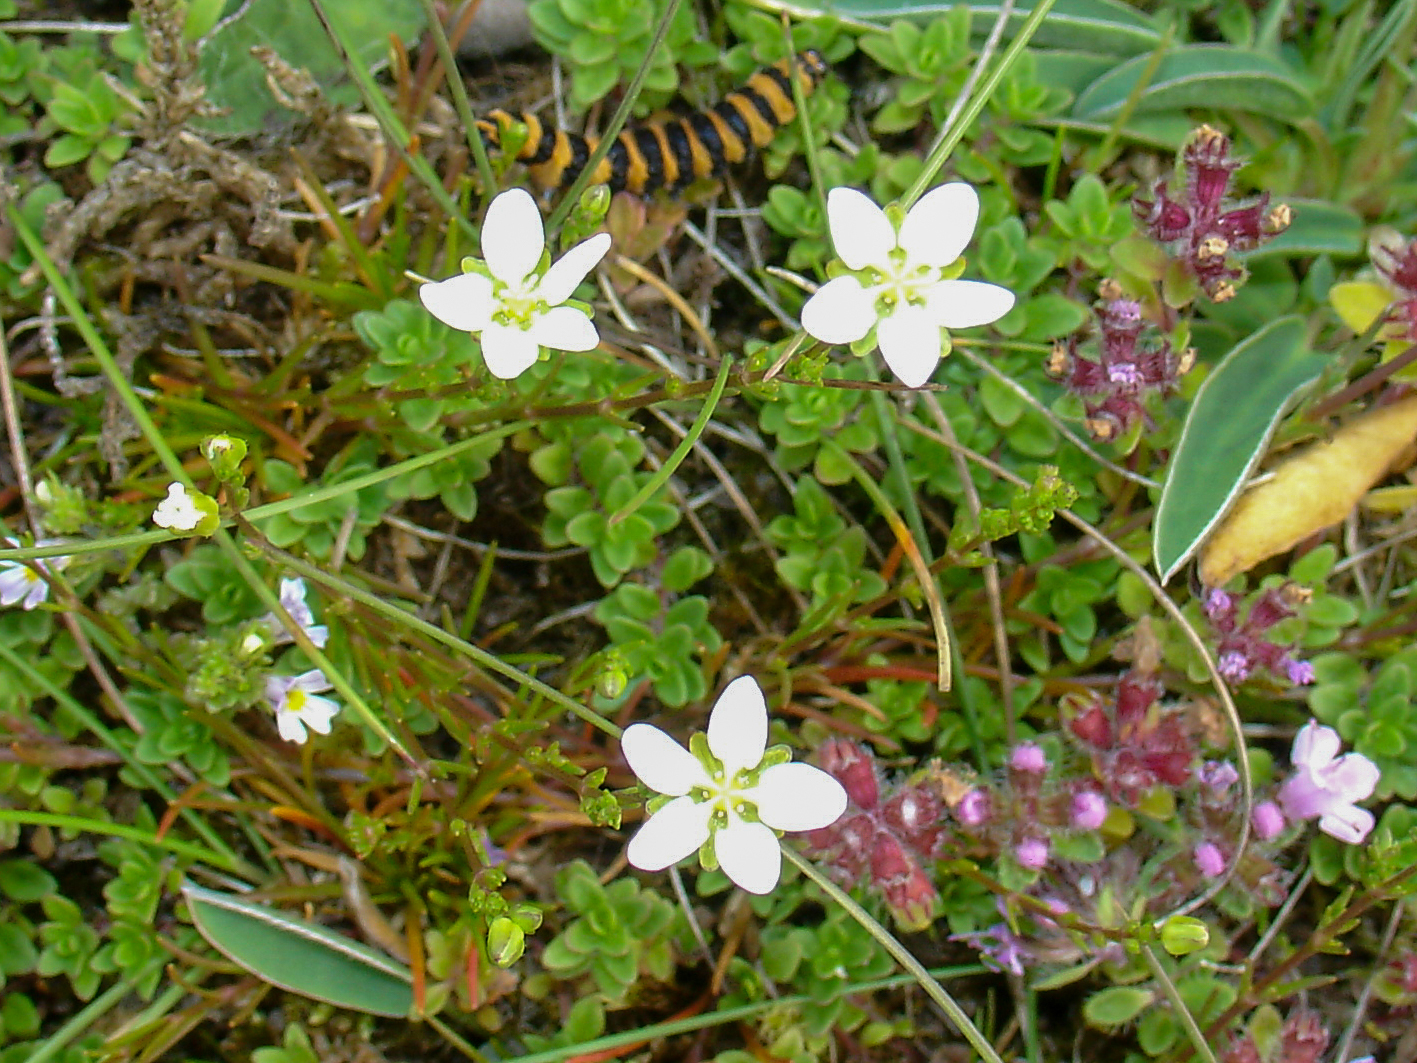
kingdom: Plantae
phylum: Tracheophyta
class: Magnoliopsida
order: Caryophyllales
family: Caryophyllaceae
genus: Sagina
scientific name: Sagina nodosa
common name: Knotted pearlwort
